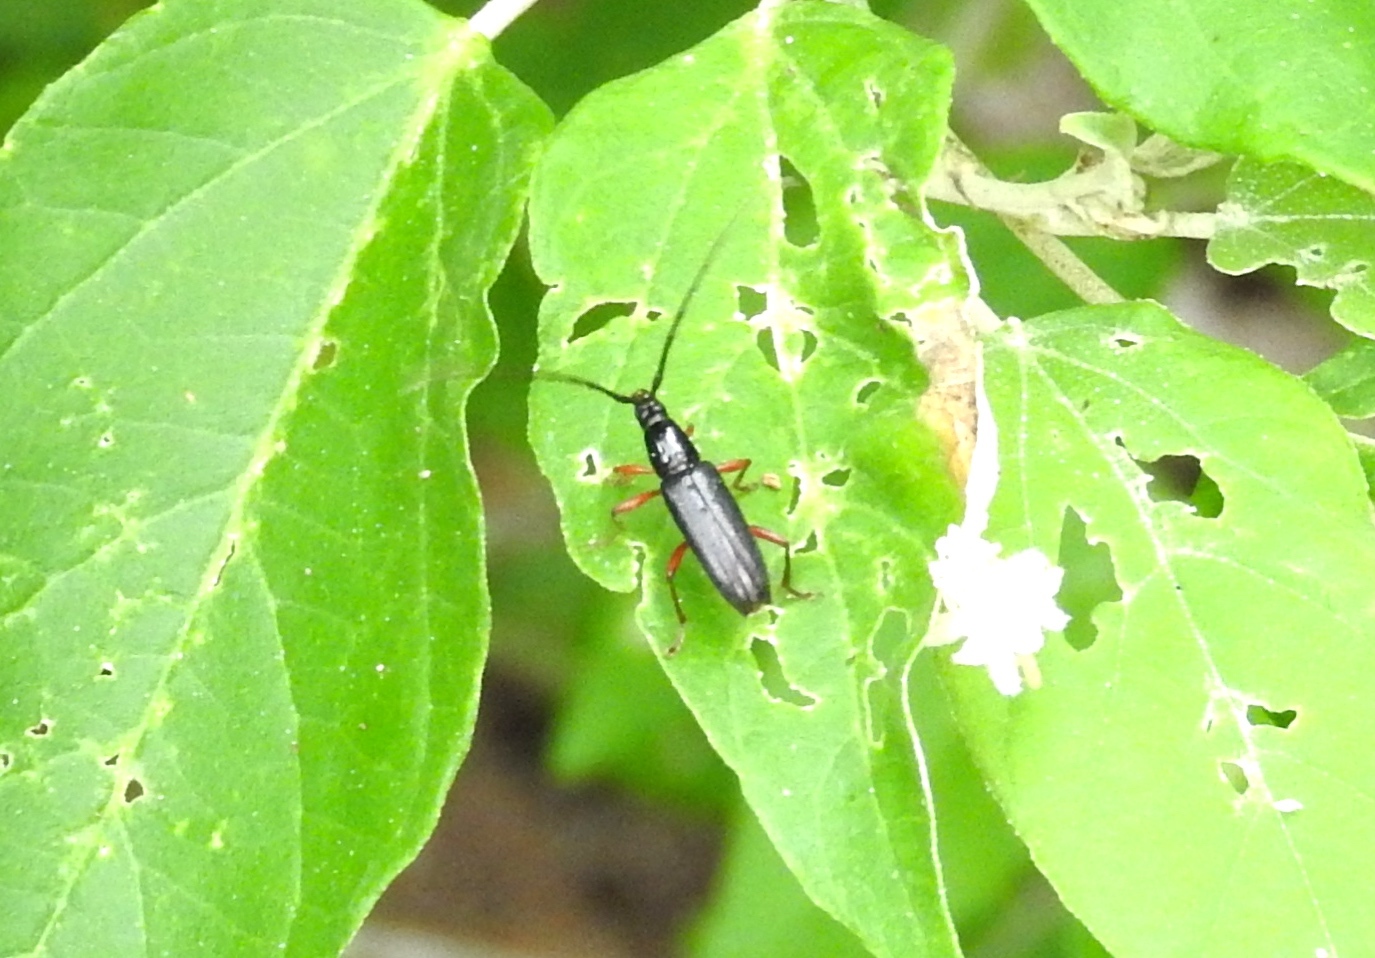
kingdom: Animalia
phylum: Arthropoda
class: Insecta
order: Coleoptera
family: Cerambycidae
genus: Stenosphenus
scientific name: Stenosphenus
